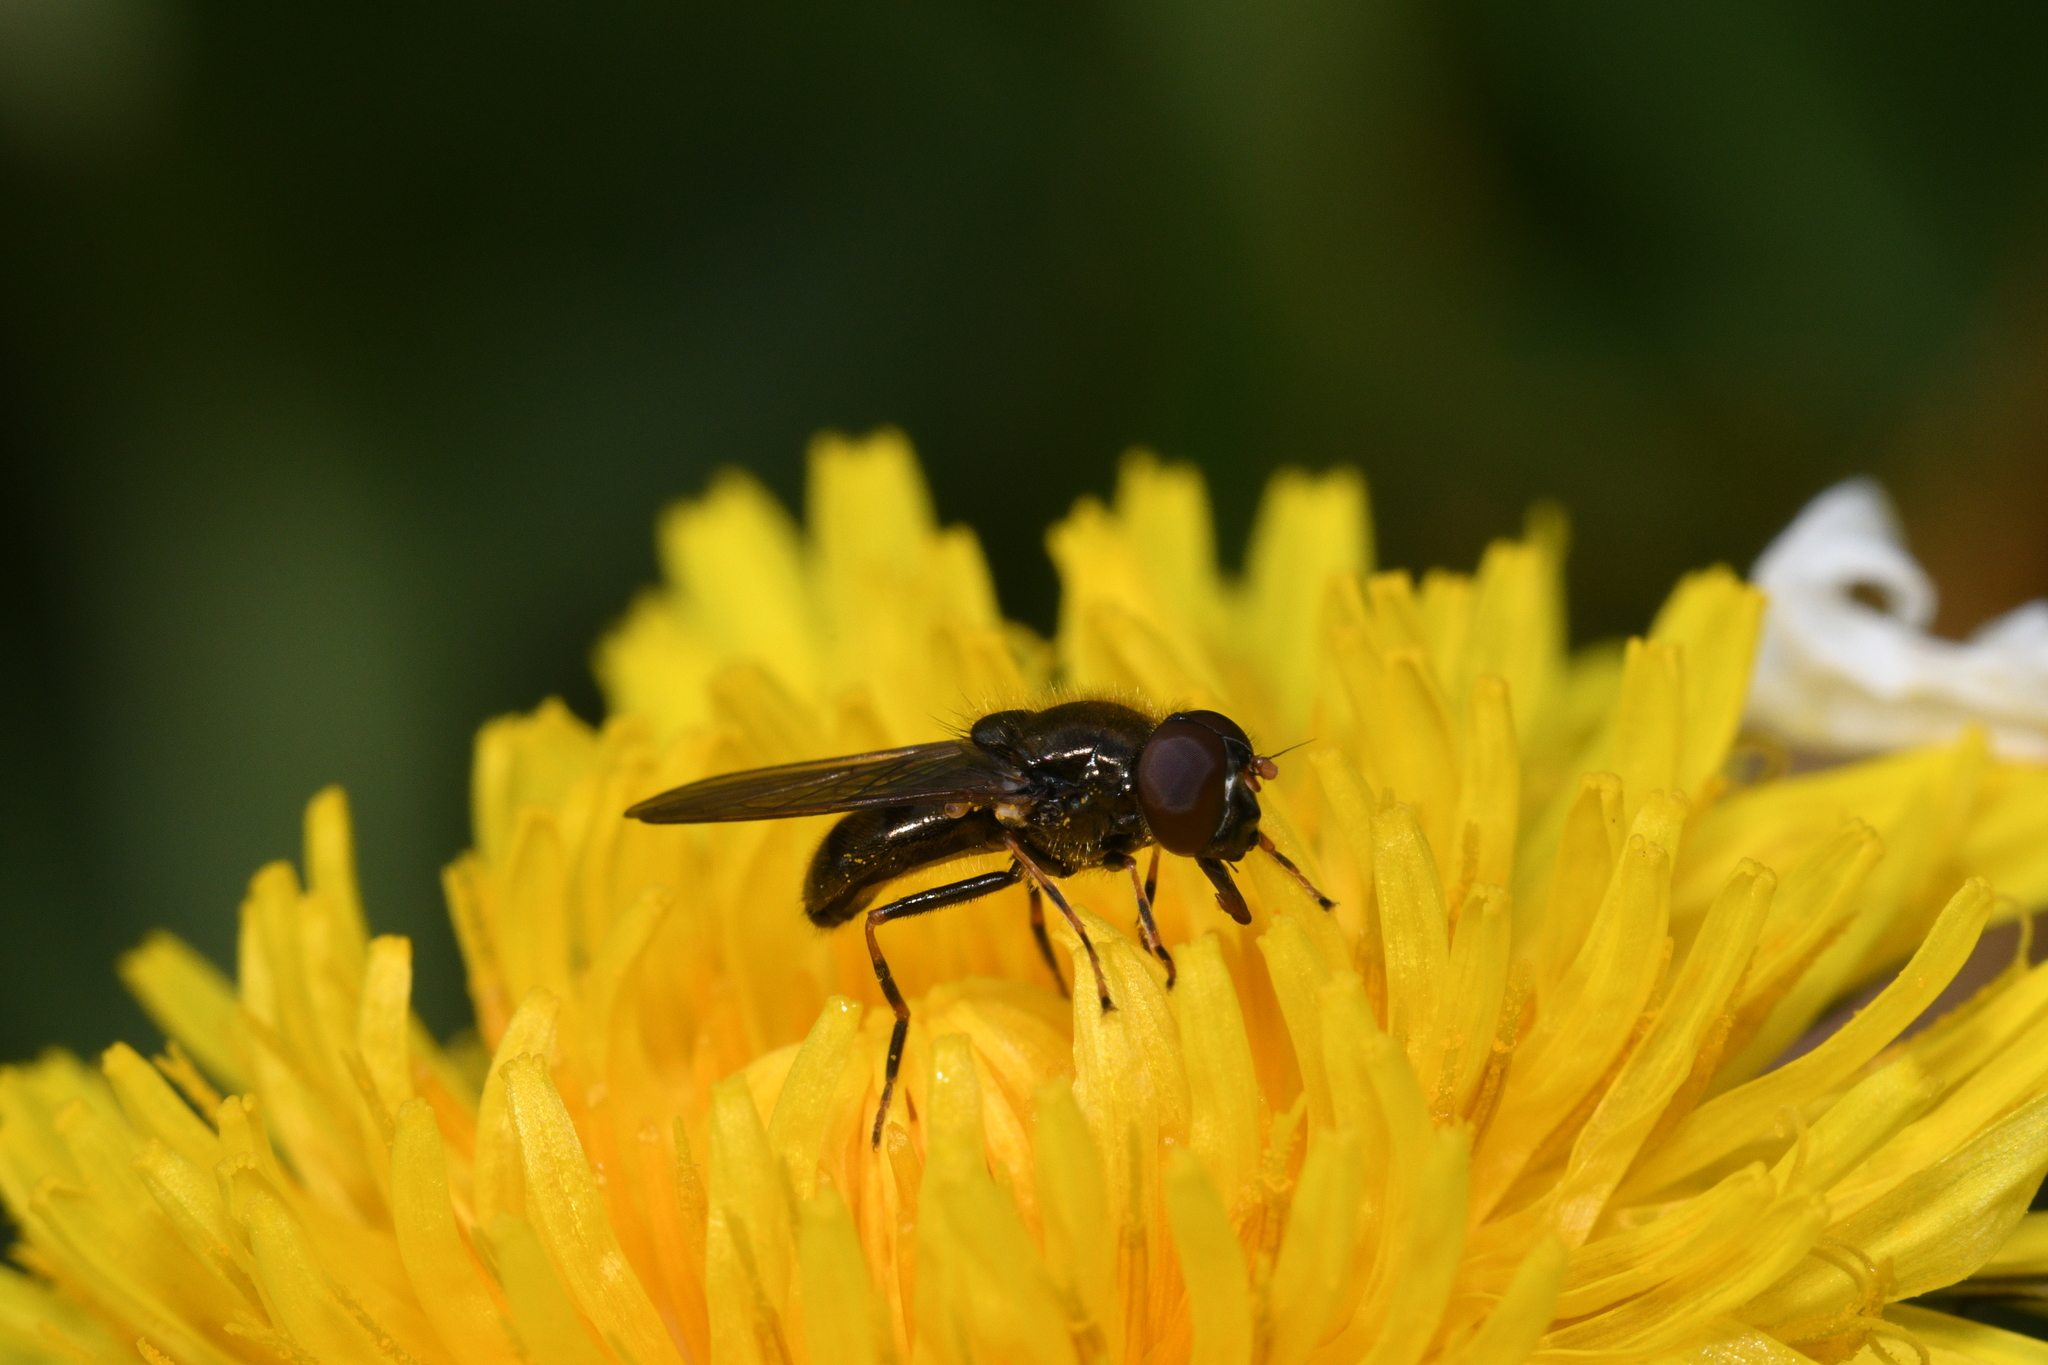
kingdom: Animalia
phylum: Arthropoda
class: Insecta
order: Diptera
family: Syrphidae
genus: Cheilosia
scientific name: Cheilosia pagana
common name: Hover fly
